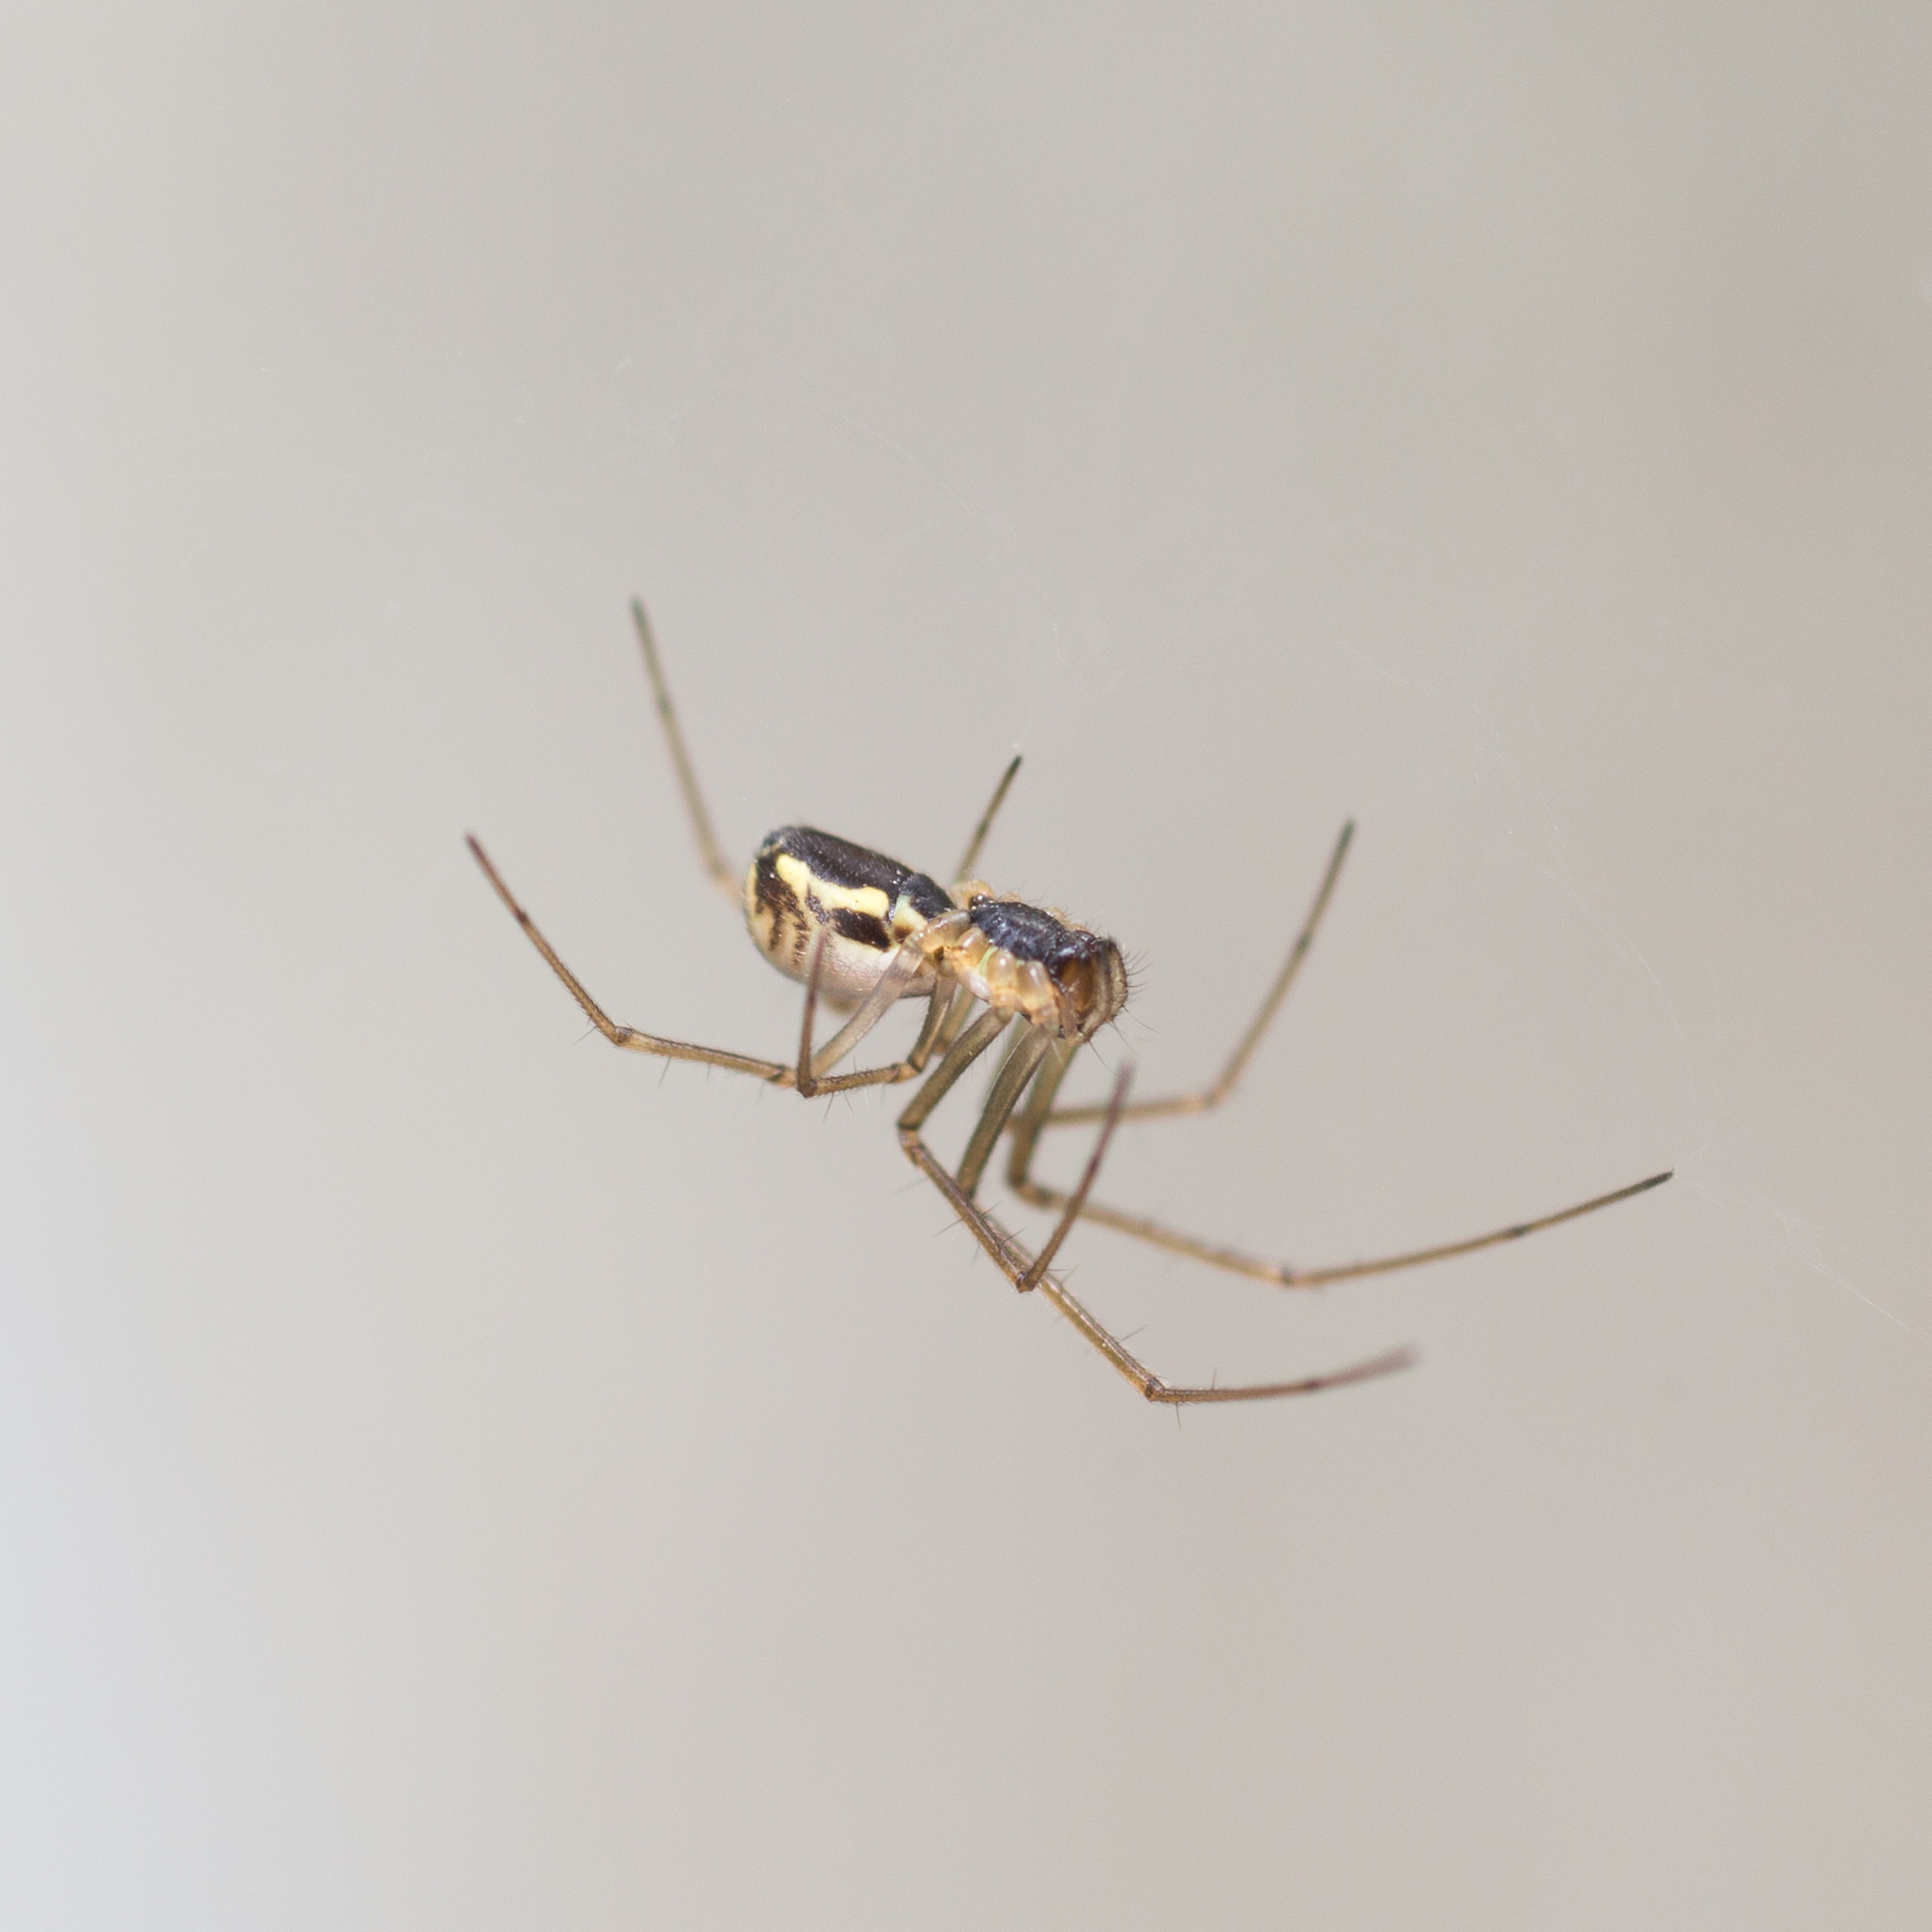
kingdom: Animalia
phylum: Arthropoda
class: Arachnida
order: Araneae
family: Linyphiidae
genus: Neriene
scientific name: Neriene radiata
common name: Filmy dome spider
